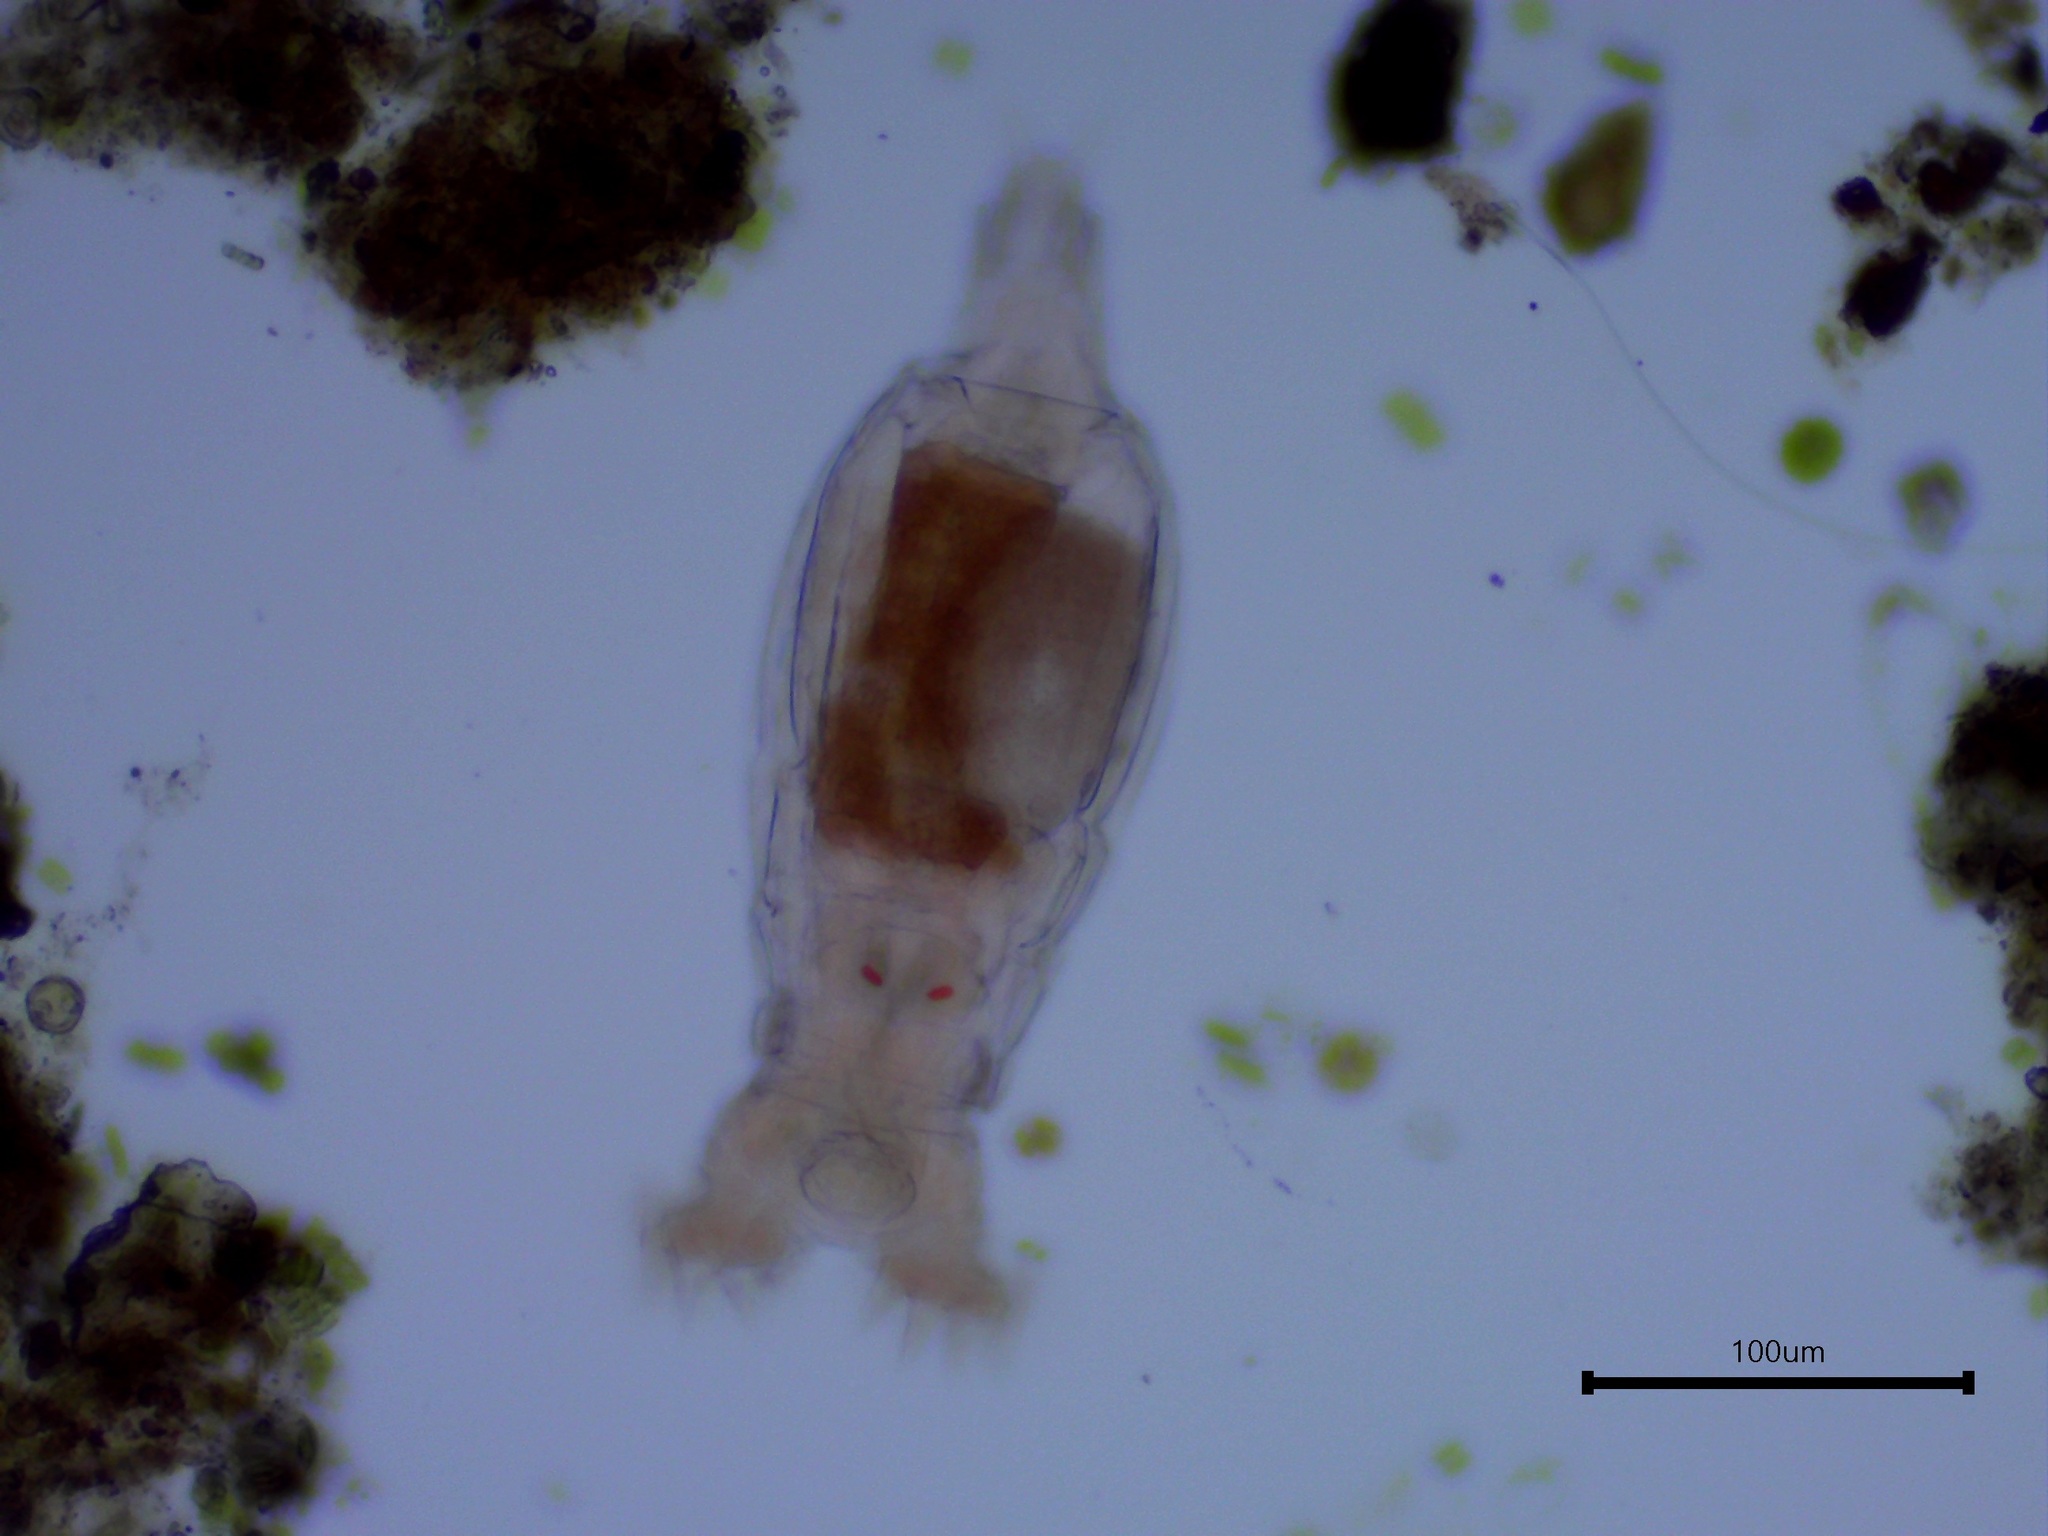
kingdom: Animalia
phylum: Rotifera
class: Eurotatoria
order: Bdelloidea
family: Philodinidae
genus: Philodina
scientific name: Philodina roseola
